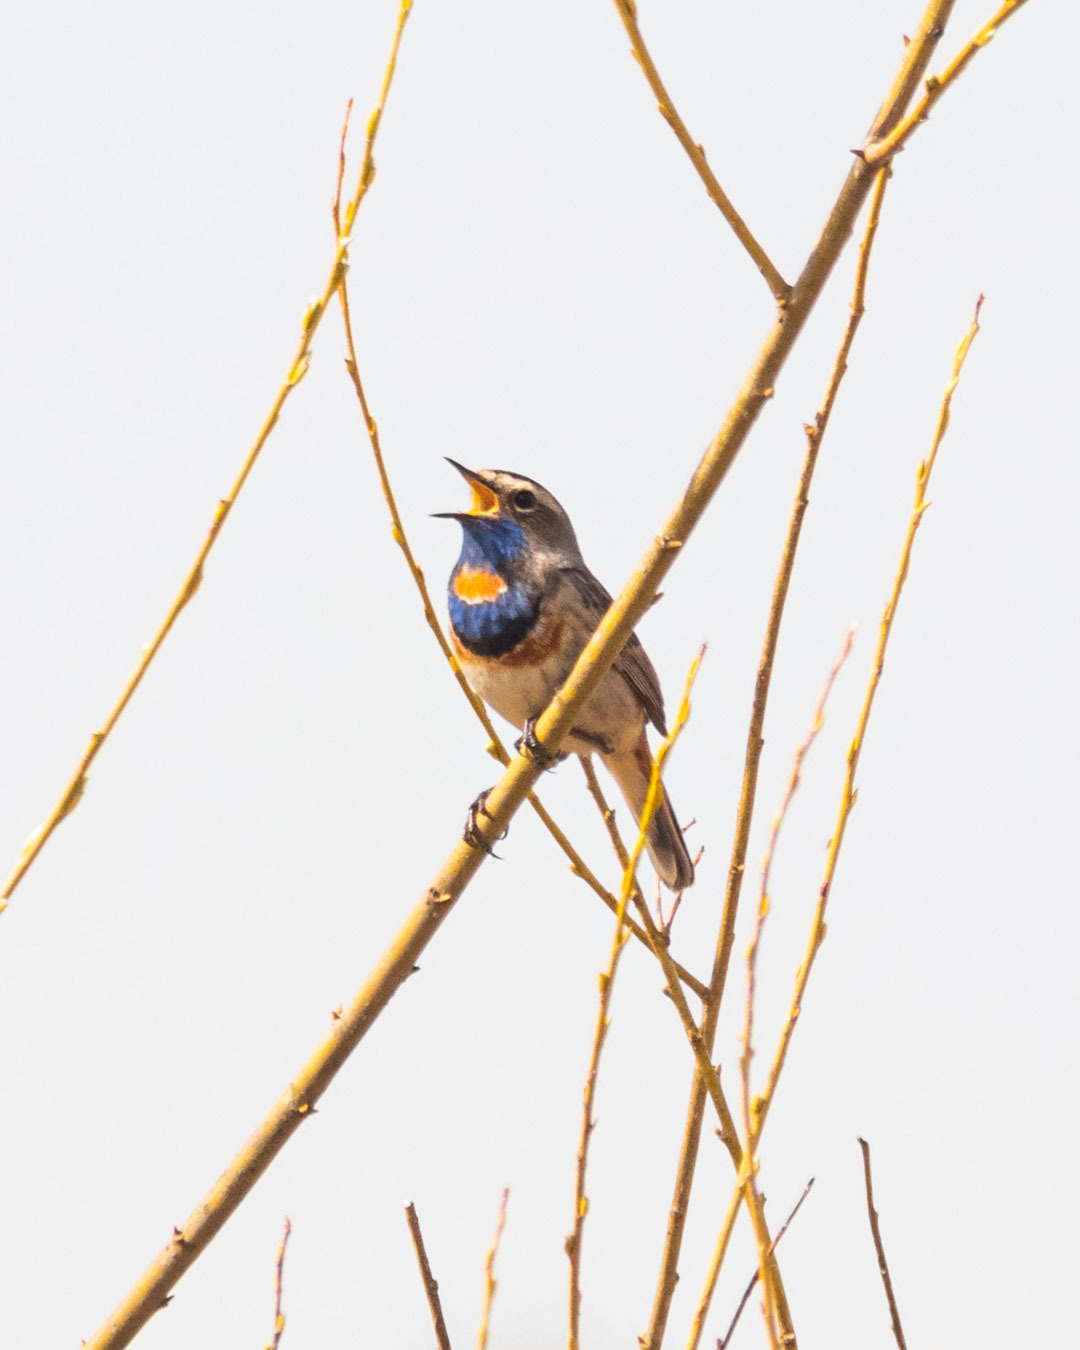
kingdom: Animalia
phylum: Chordata
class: Aves
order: Passeriformes
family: Muscicapidae
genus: Luscinia
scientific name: Luscinia svecica
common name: Bluethroat
